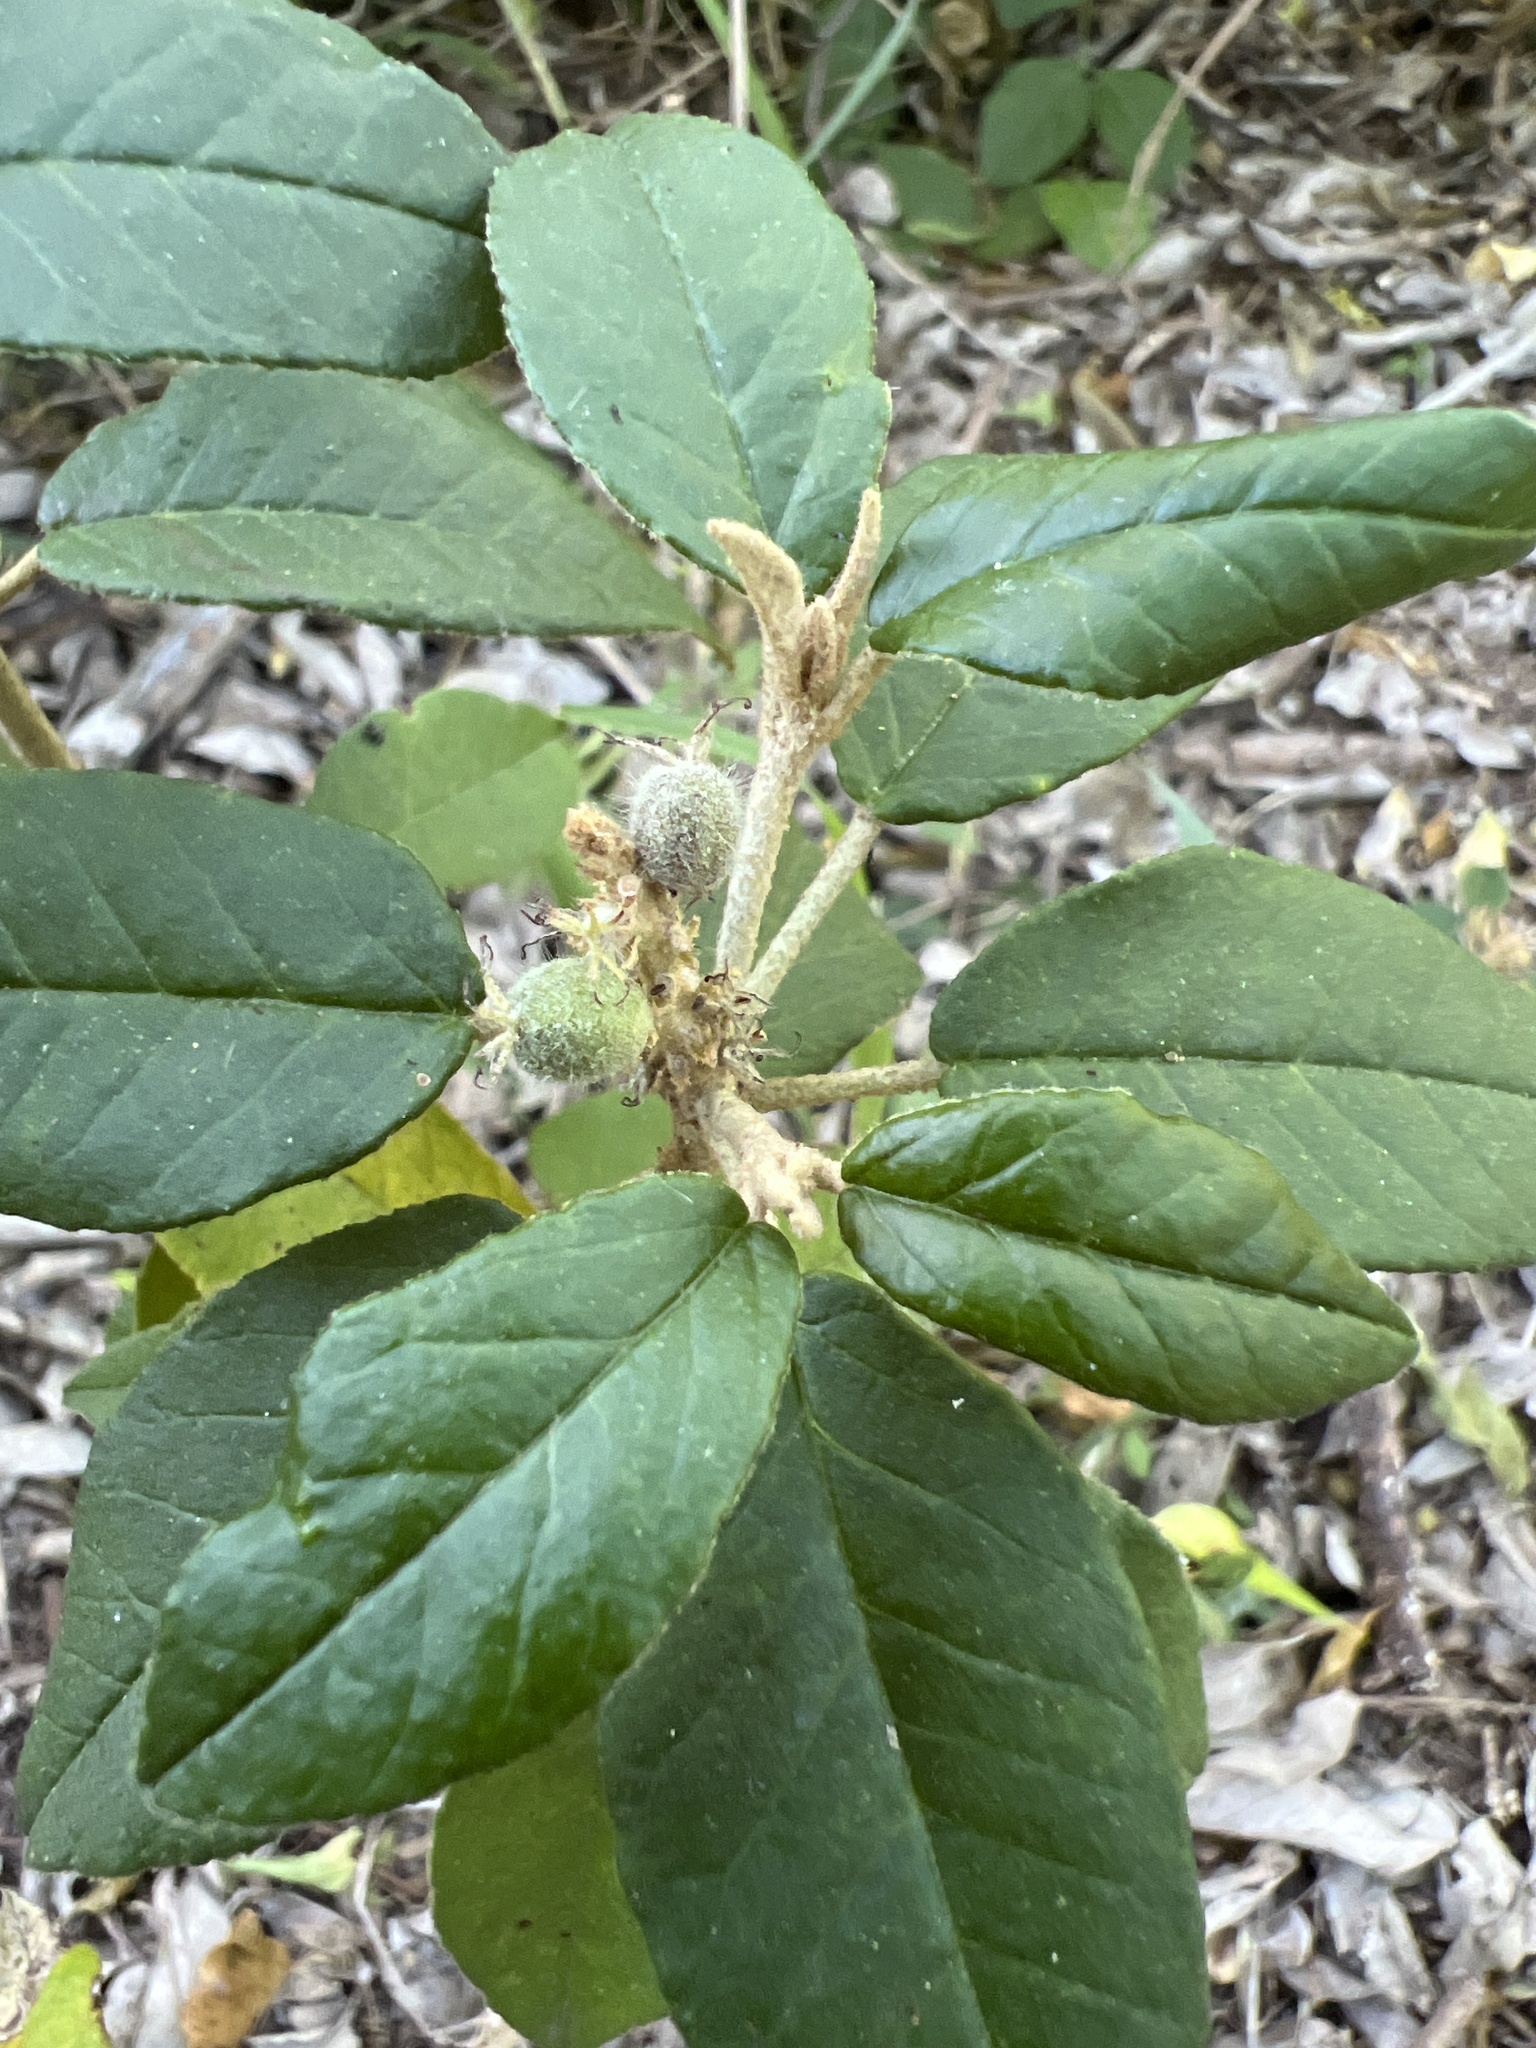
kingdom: Plantae
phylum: Tracheophyta
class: Magnoliopsida
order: Malpighiales
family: Euphorbiaceae
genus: Croton
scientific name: Croton cortesianus
